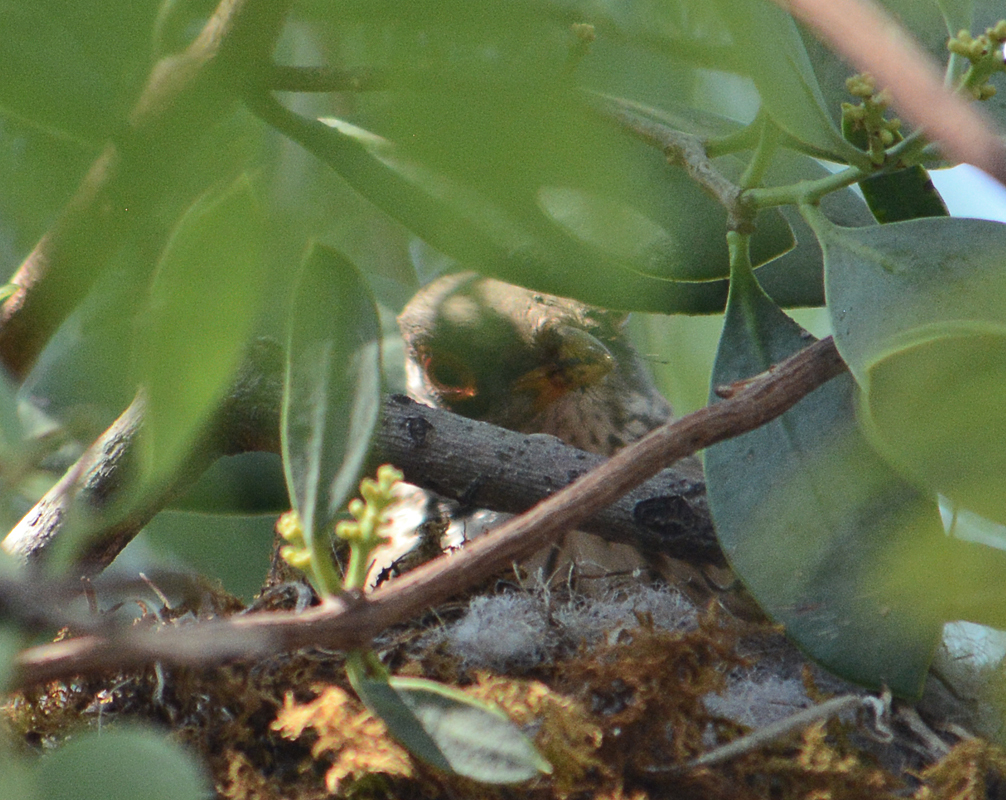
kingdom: Animalia
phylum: Chordata
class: Aves
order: Passeriformes
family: Turdidae
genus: Turdus
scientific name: Turdus rufopalliatus
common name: Rufous-backed robin
